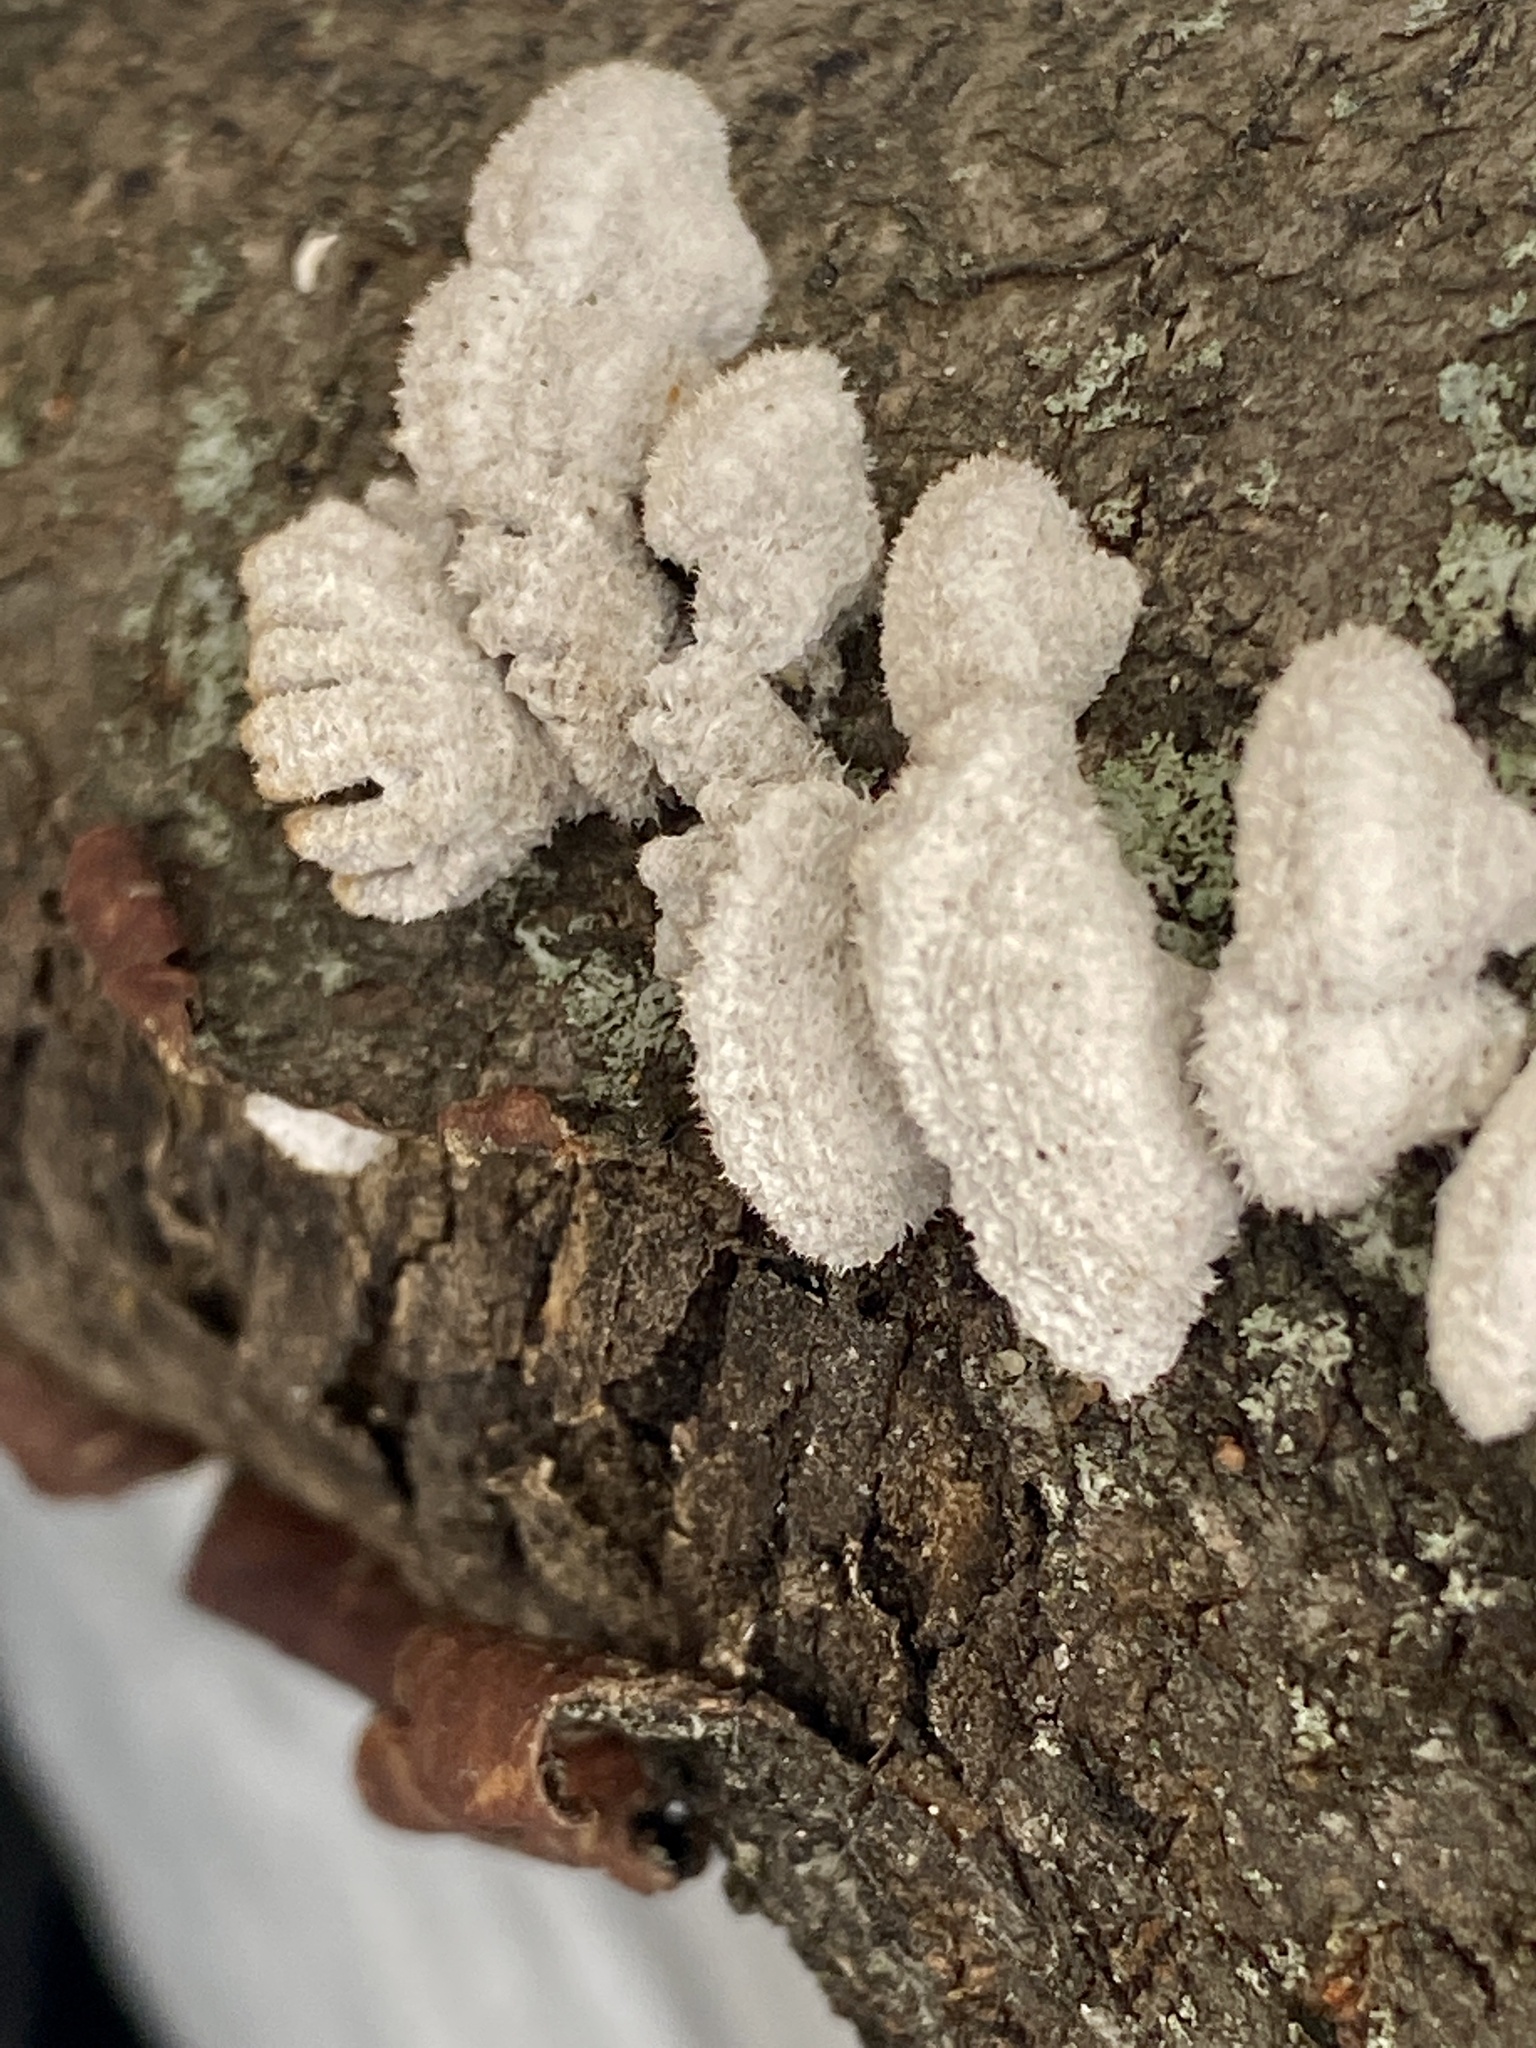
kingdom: Fungi
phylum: Basidiomycota
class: Agaricomycetes
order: Agaricales
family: Schizophyllaceae
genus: Schizophyllum
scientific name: Schizophyllum commune
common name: Common porecrust
